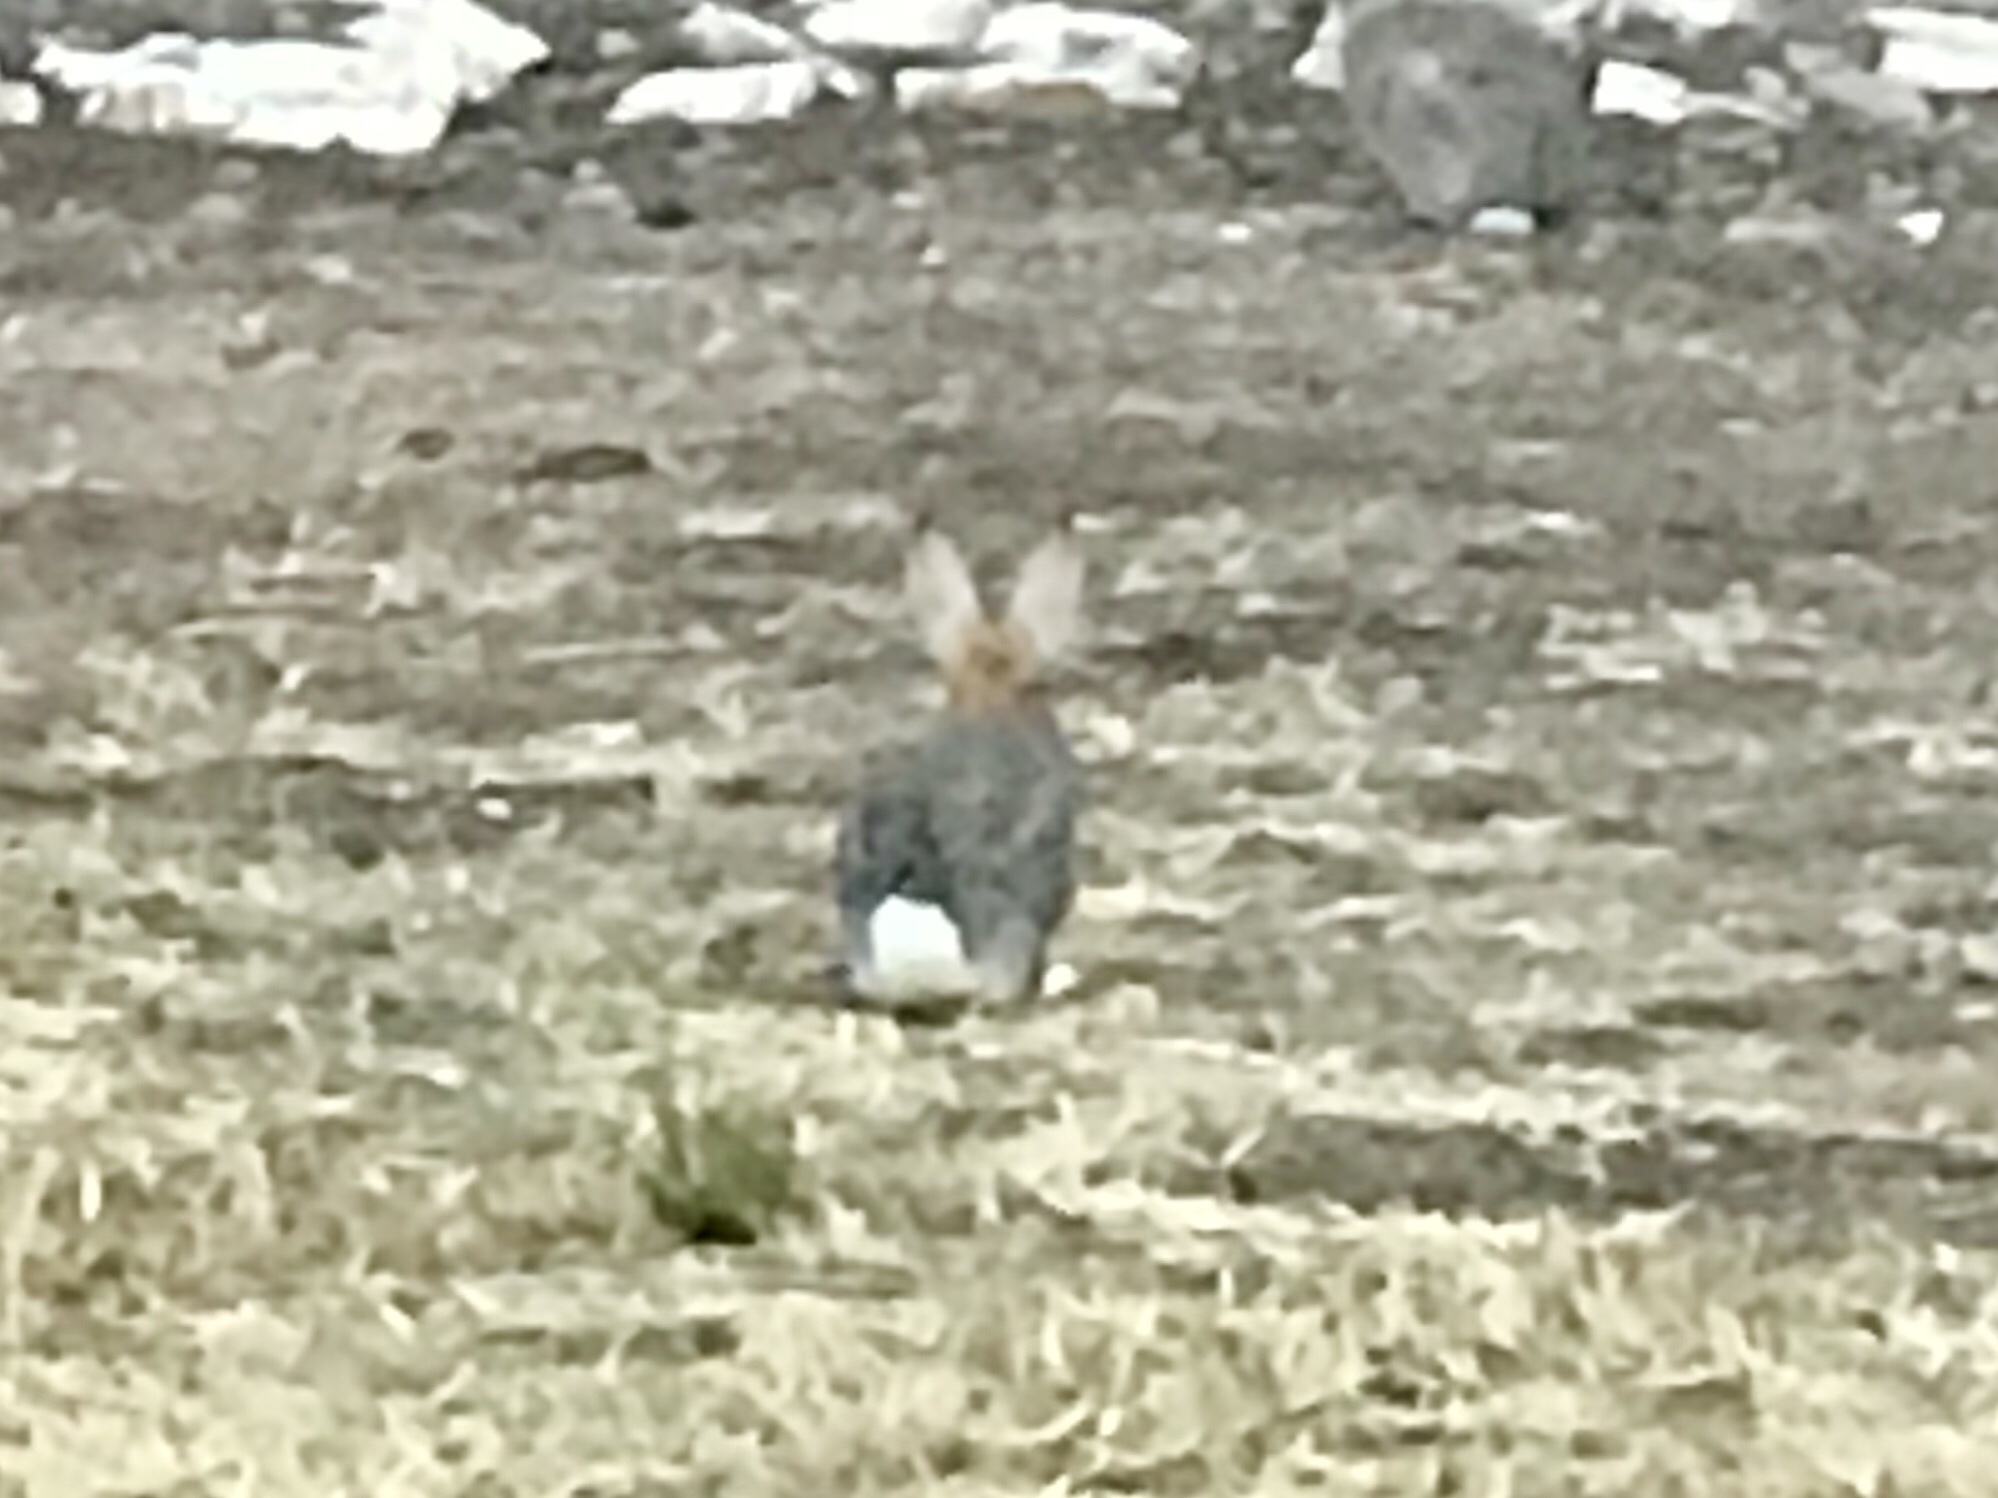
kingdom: Animalia
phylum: Chordata
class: Mammalia
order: Lagomorpha
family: Leporidae
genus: Sylvilagus
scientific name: Sylvilagus audubonii
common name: Desert cottontail
